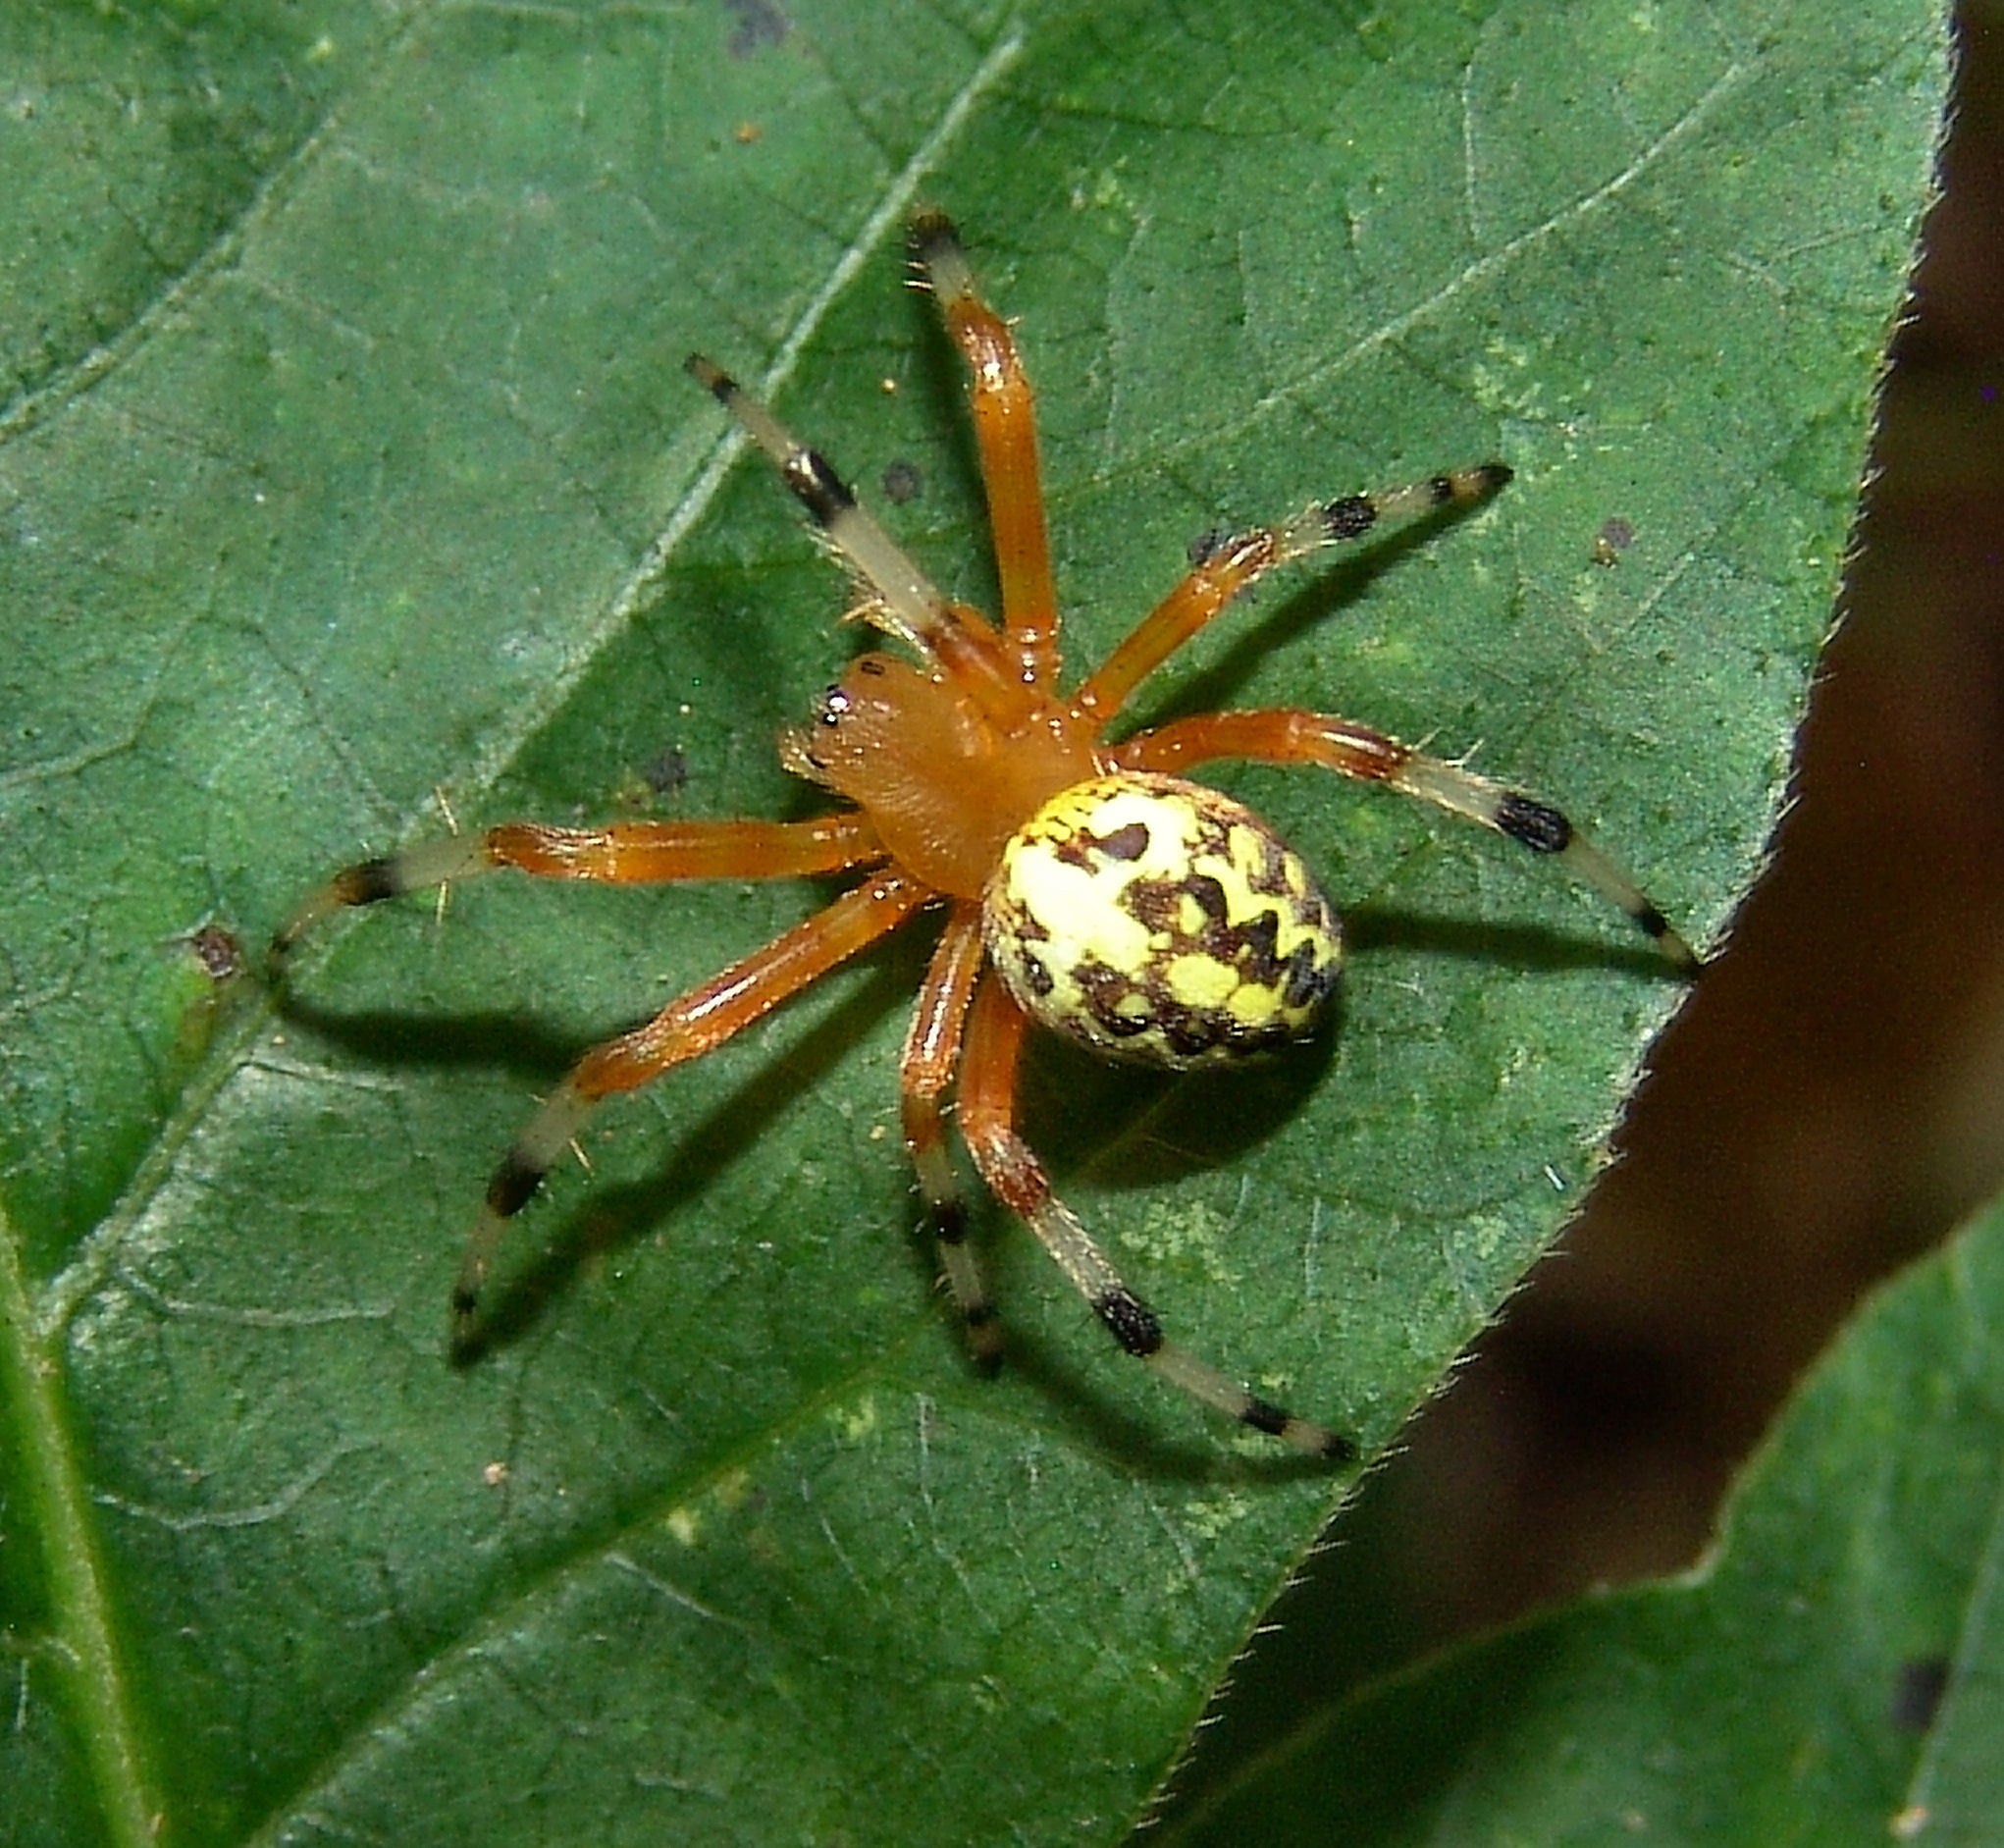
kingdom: Animalia
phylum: Arthropoda
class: Arachnida
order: Araneae
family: Araneidae
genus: Araneus
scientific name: Araneus marmoreus
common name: Marbled orbweaver
